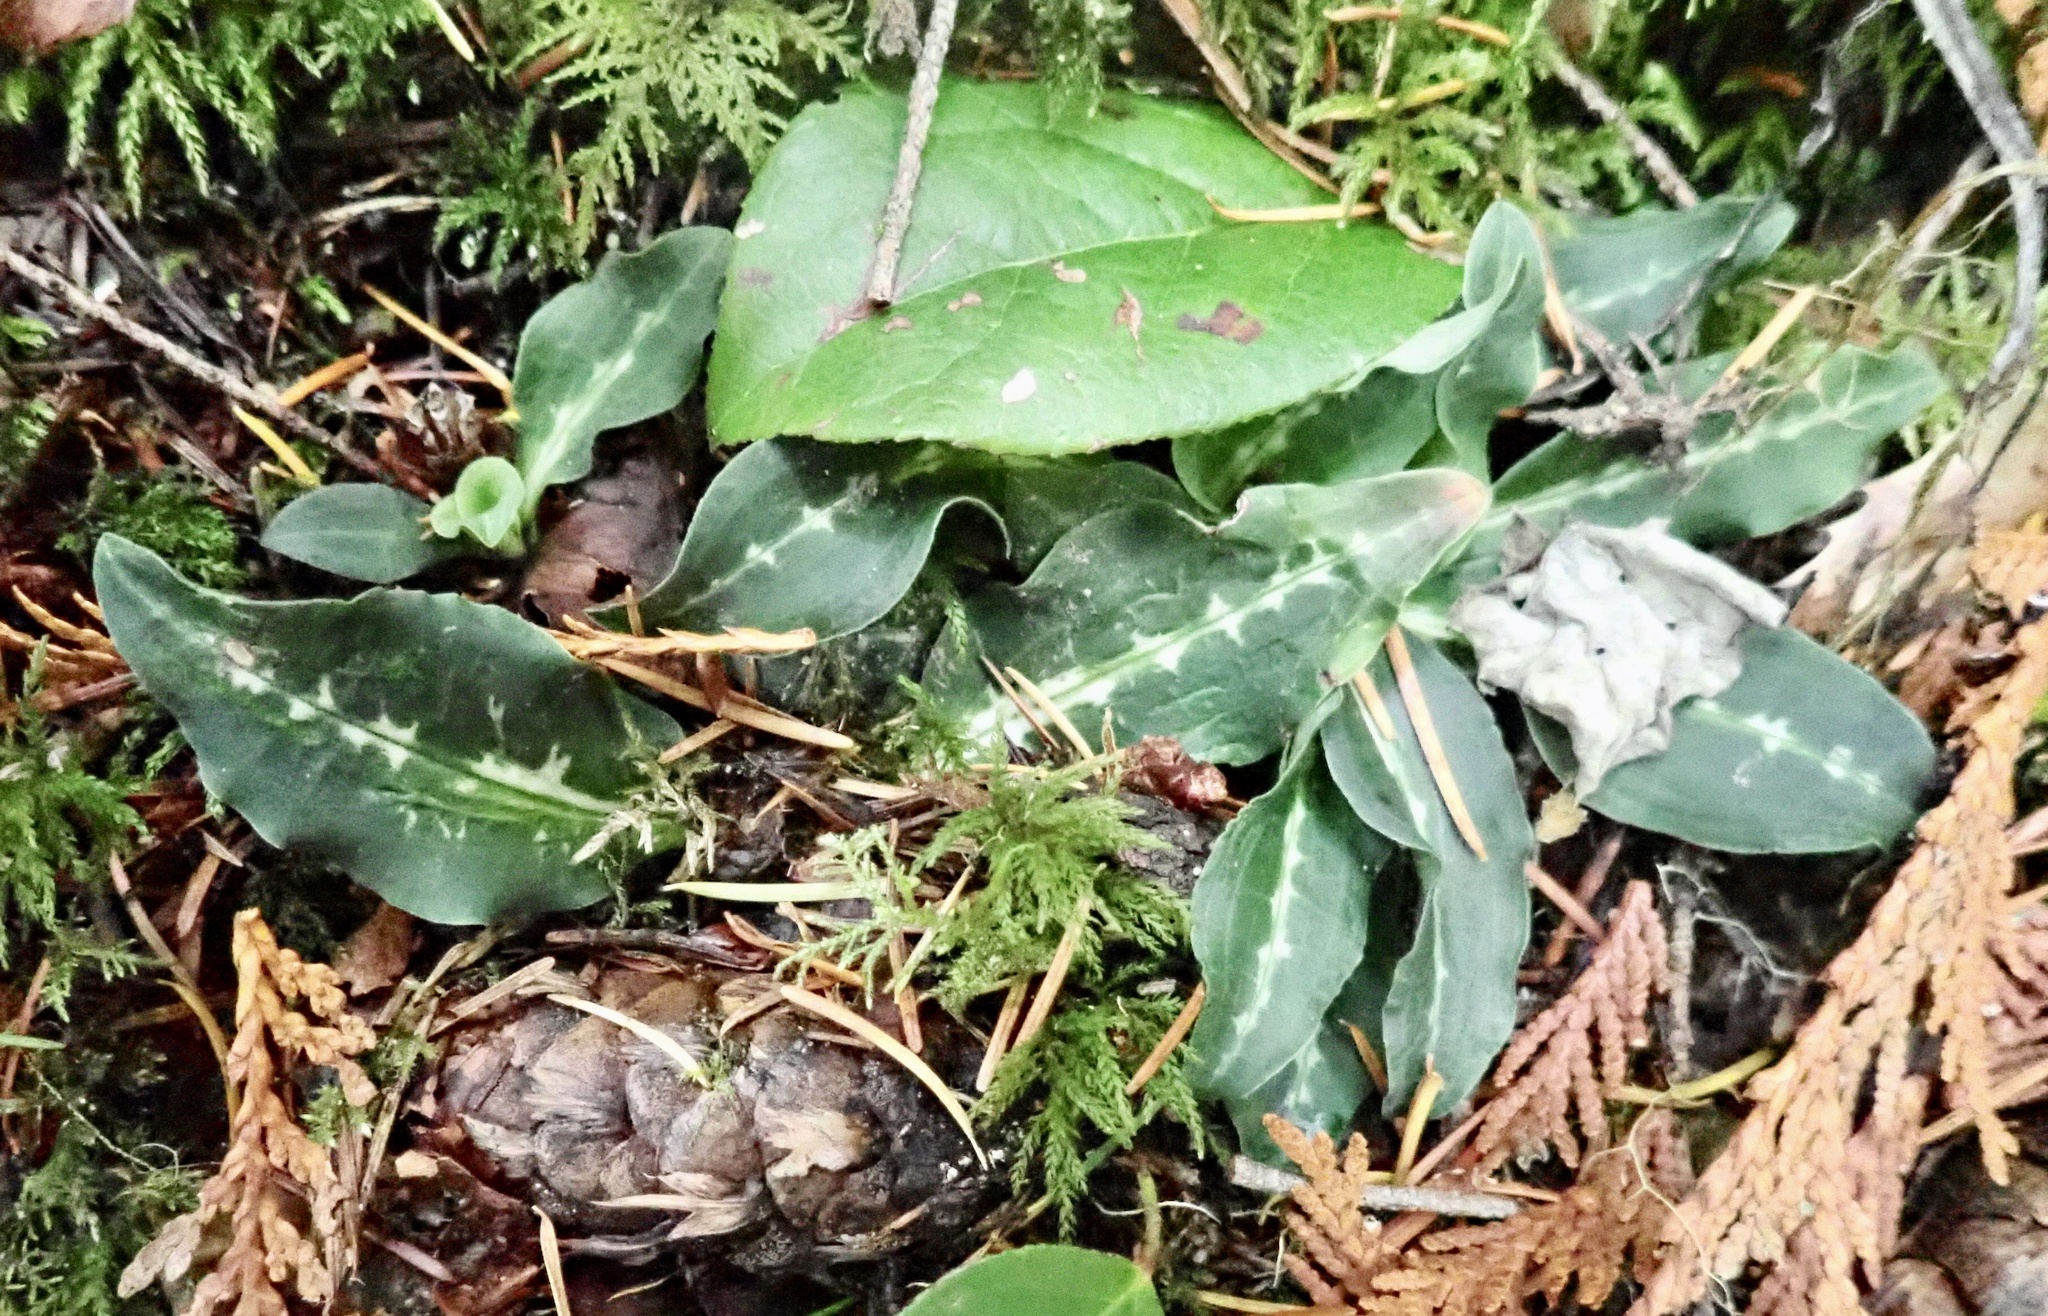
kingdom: Plantae
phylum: Tracheophyta
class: Liliopsida
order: Asparagales
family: Orchidaceae
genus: Goodyera
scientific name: Goodyera oblongifolia
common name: Giant rattlesnake-plantain
